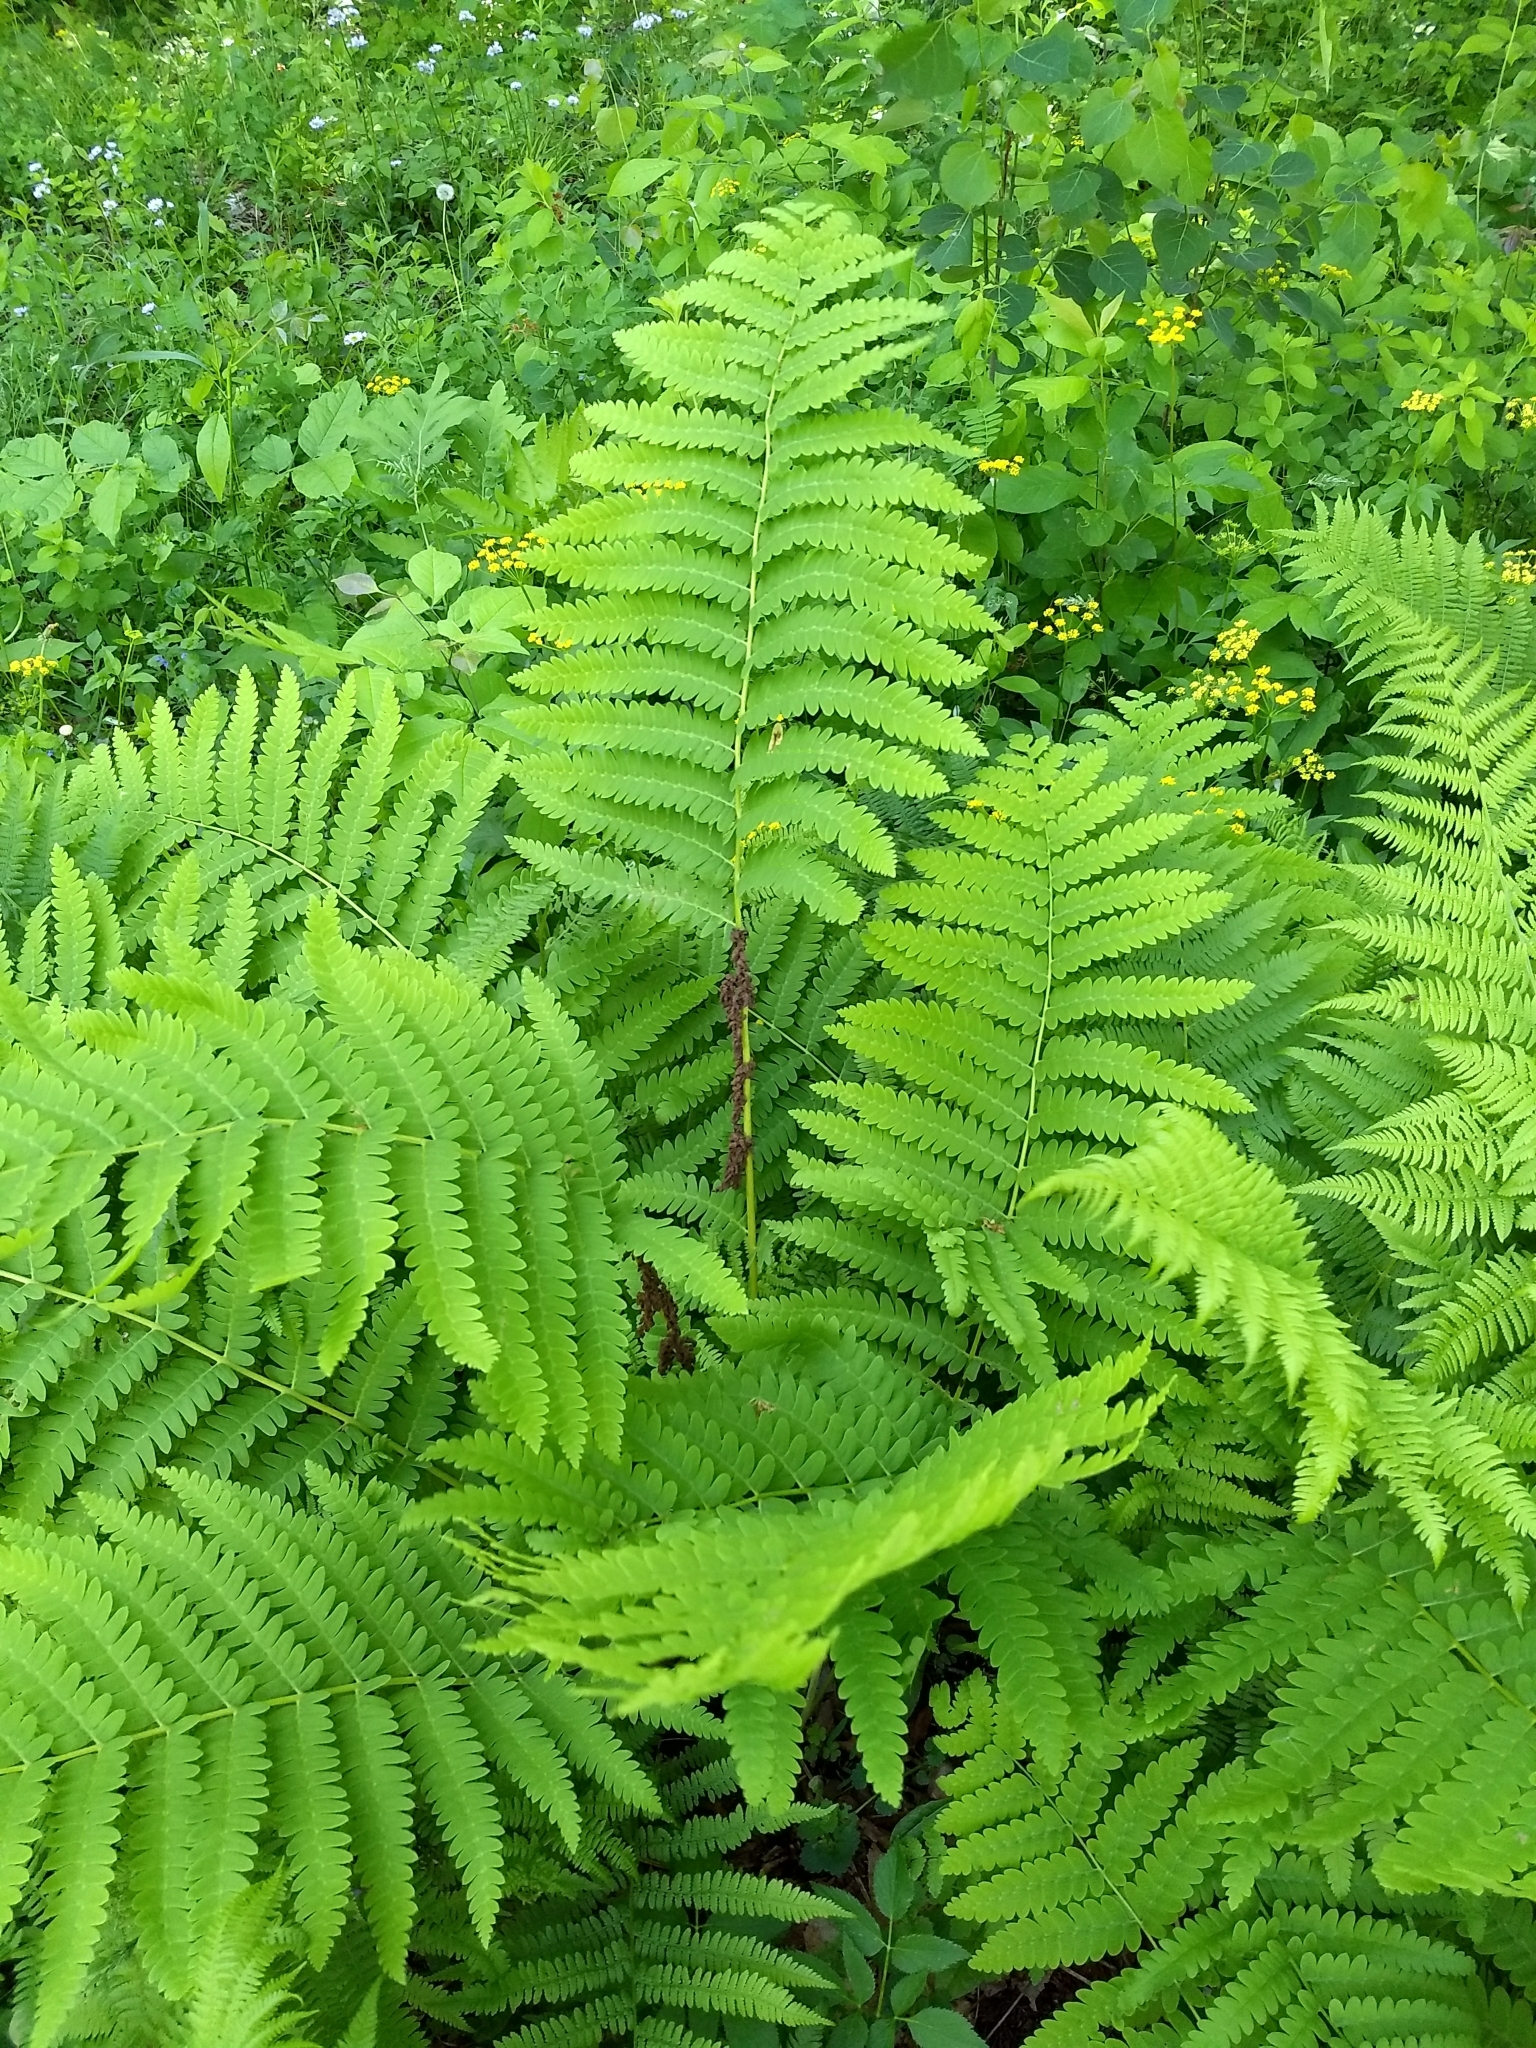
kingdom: Plantae
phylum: Tracheophyta
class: Polypodiopsida
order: Osmundales
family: Osmundaceae
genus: Claytosmunda
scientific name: Claytosmunda claytoniana
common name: Clayton's fern
